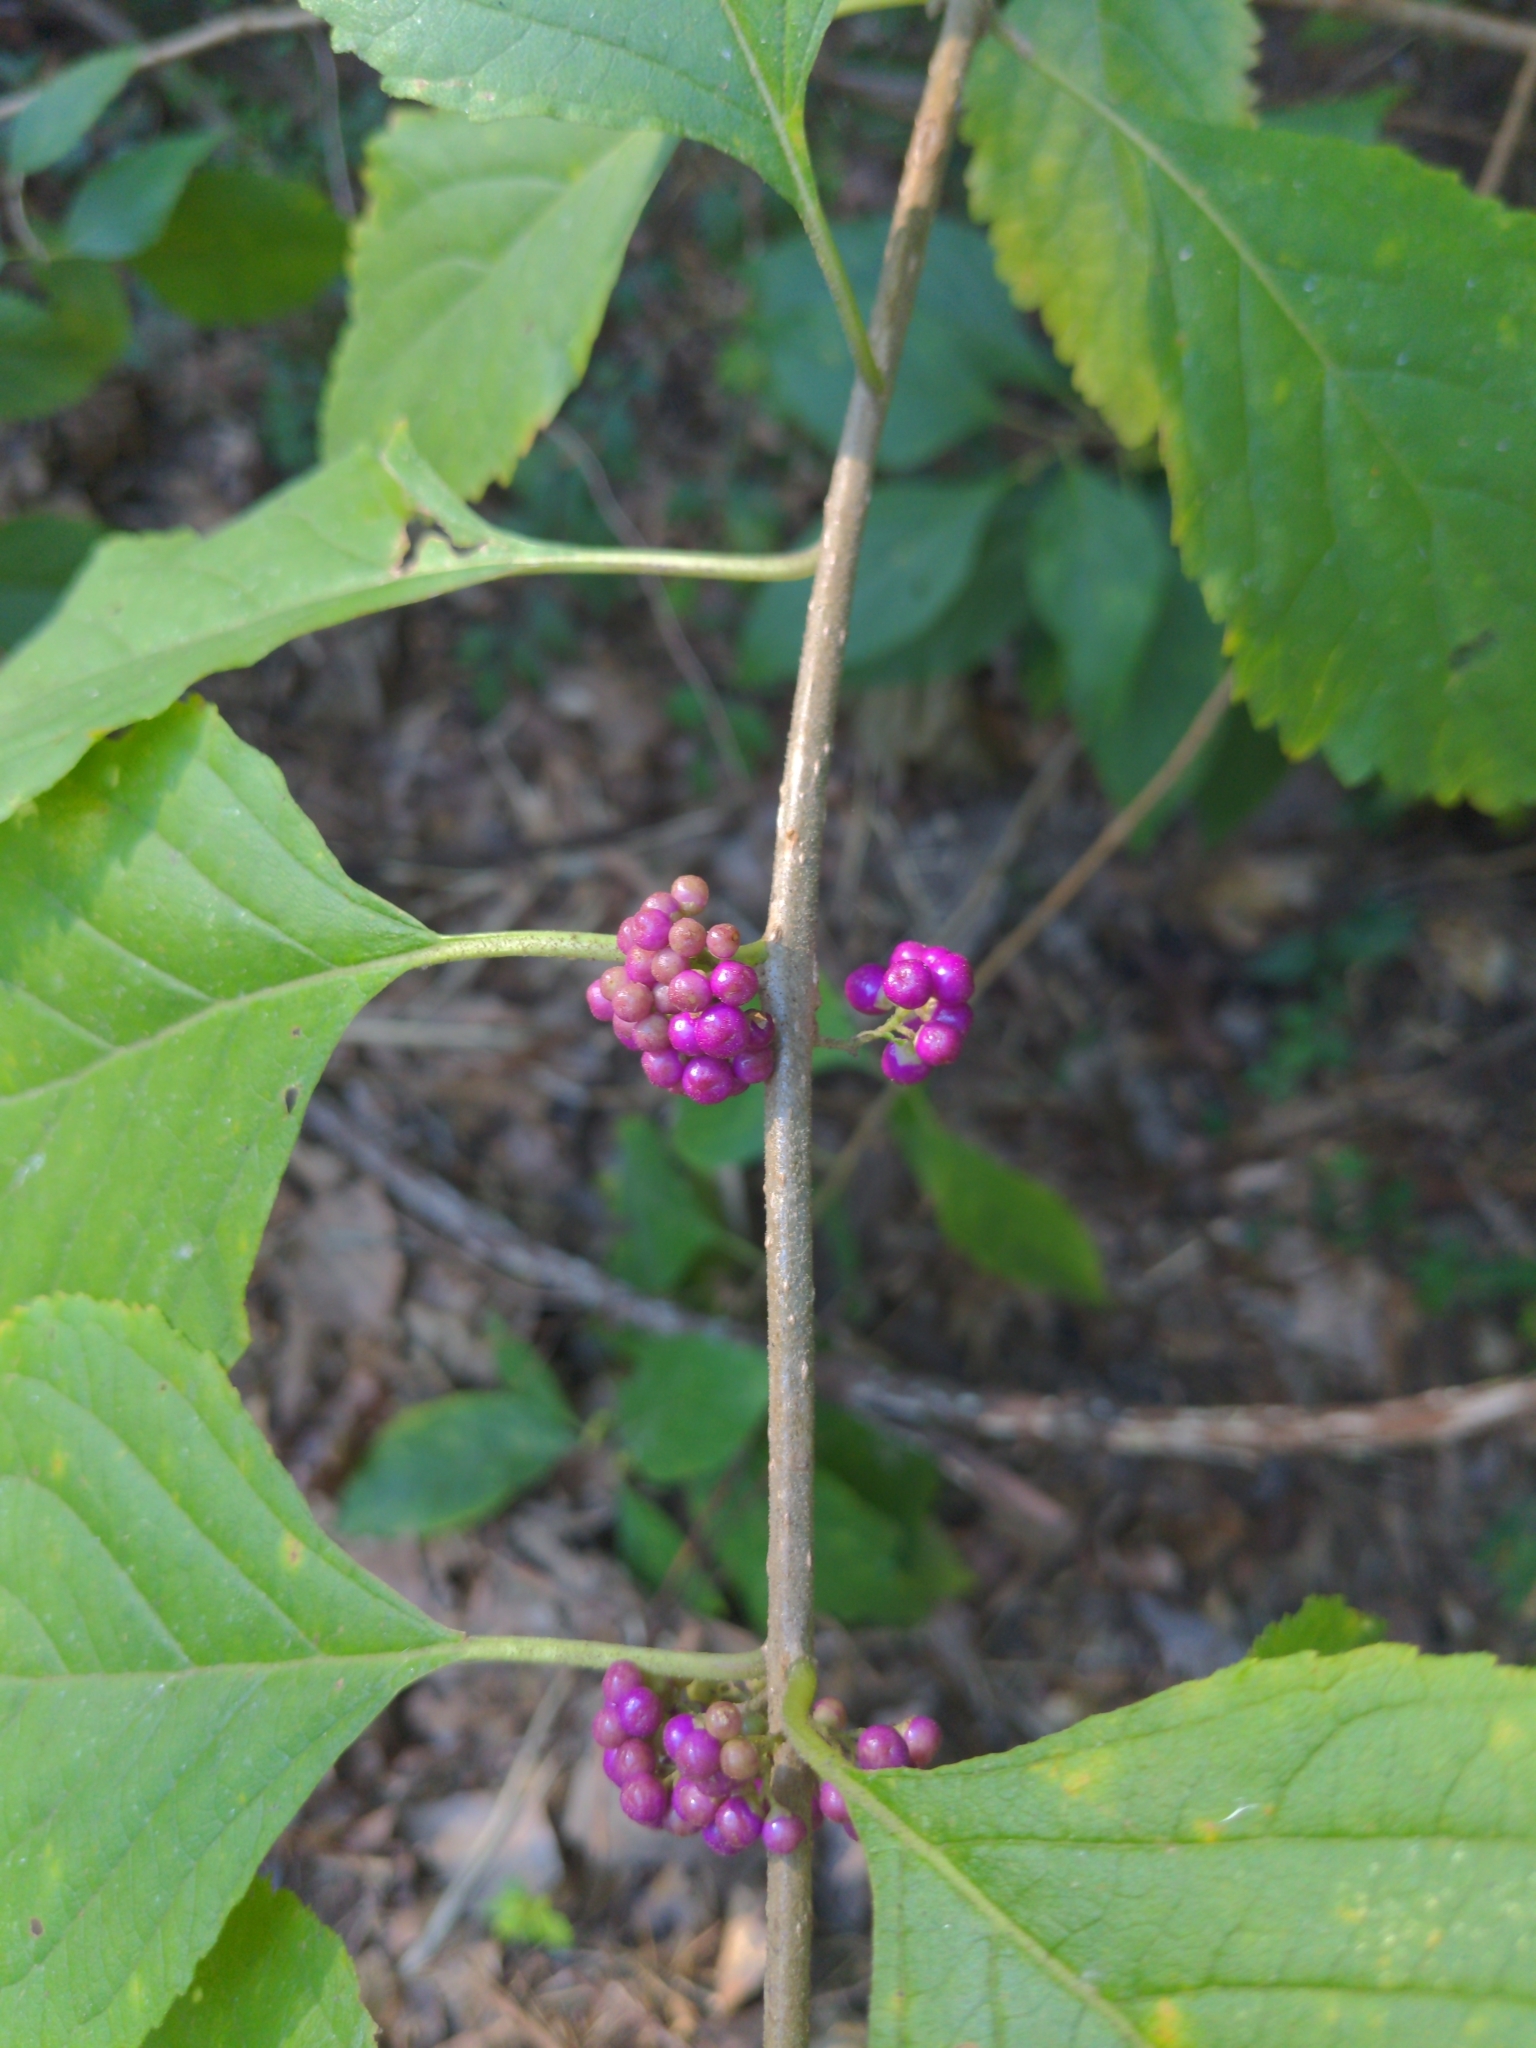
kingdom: Plantae
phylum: Tracheophyta
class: Magnoliopsida
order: Lamiales
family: Lamiaceae
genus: Callicarpa
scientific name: Callicarpa americana
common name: American beautyberry
